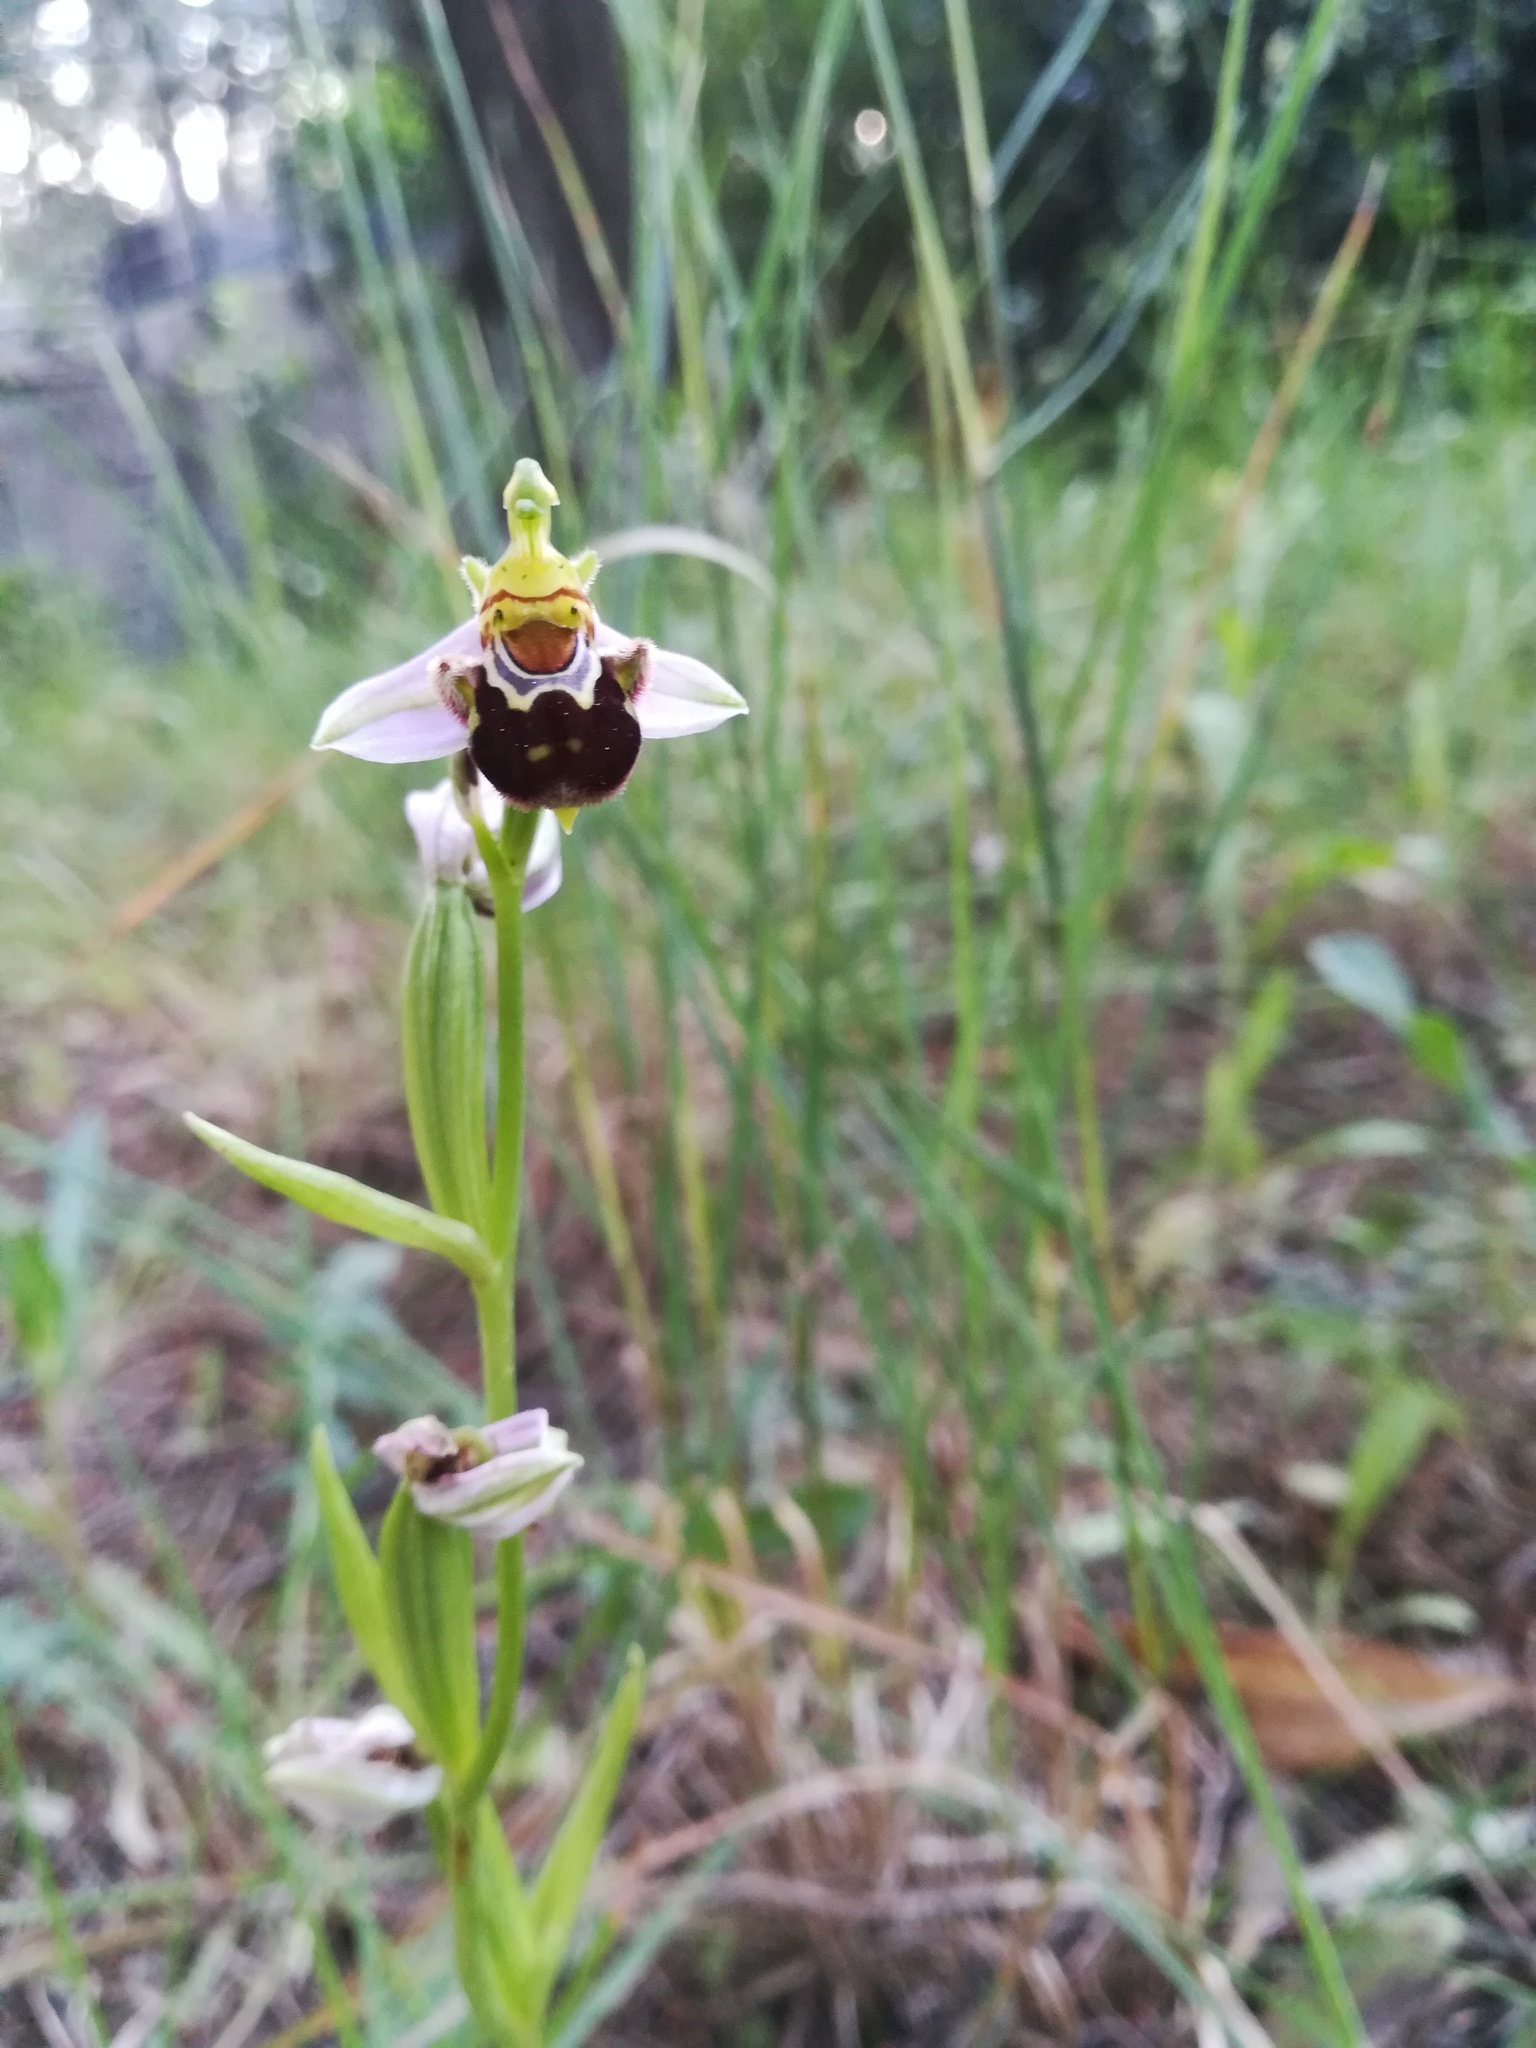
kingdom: Plantae
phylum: Tracheophyta
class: Liliopsida
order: Asparagales
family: Orchidaceae
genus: Ophrys
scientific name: Ophrys apifera
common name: Bee orchid
